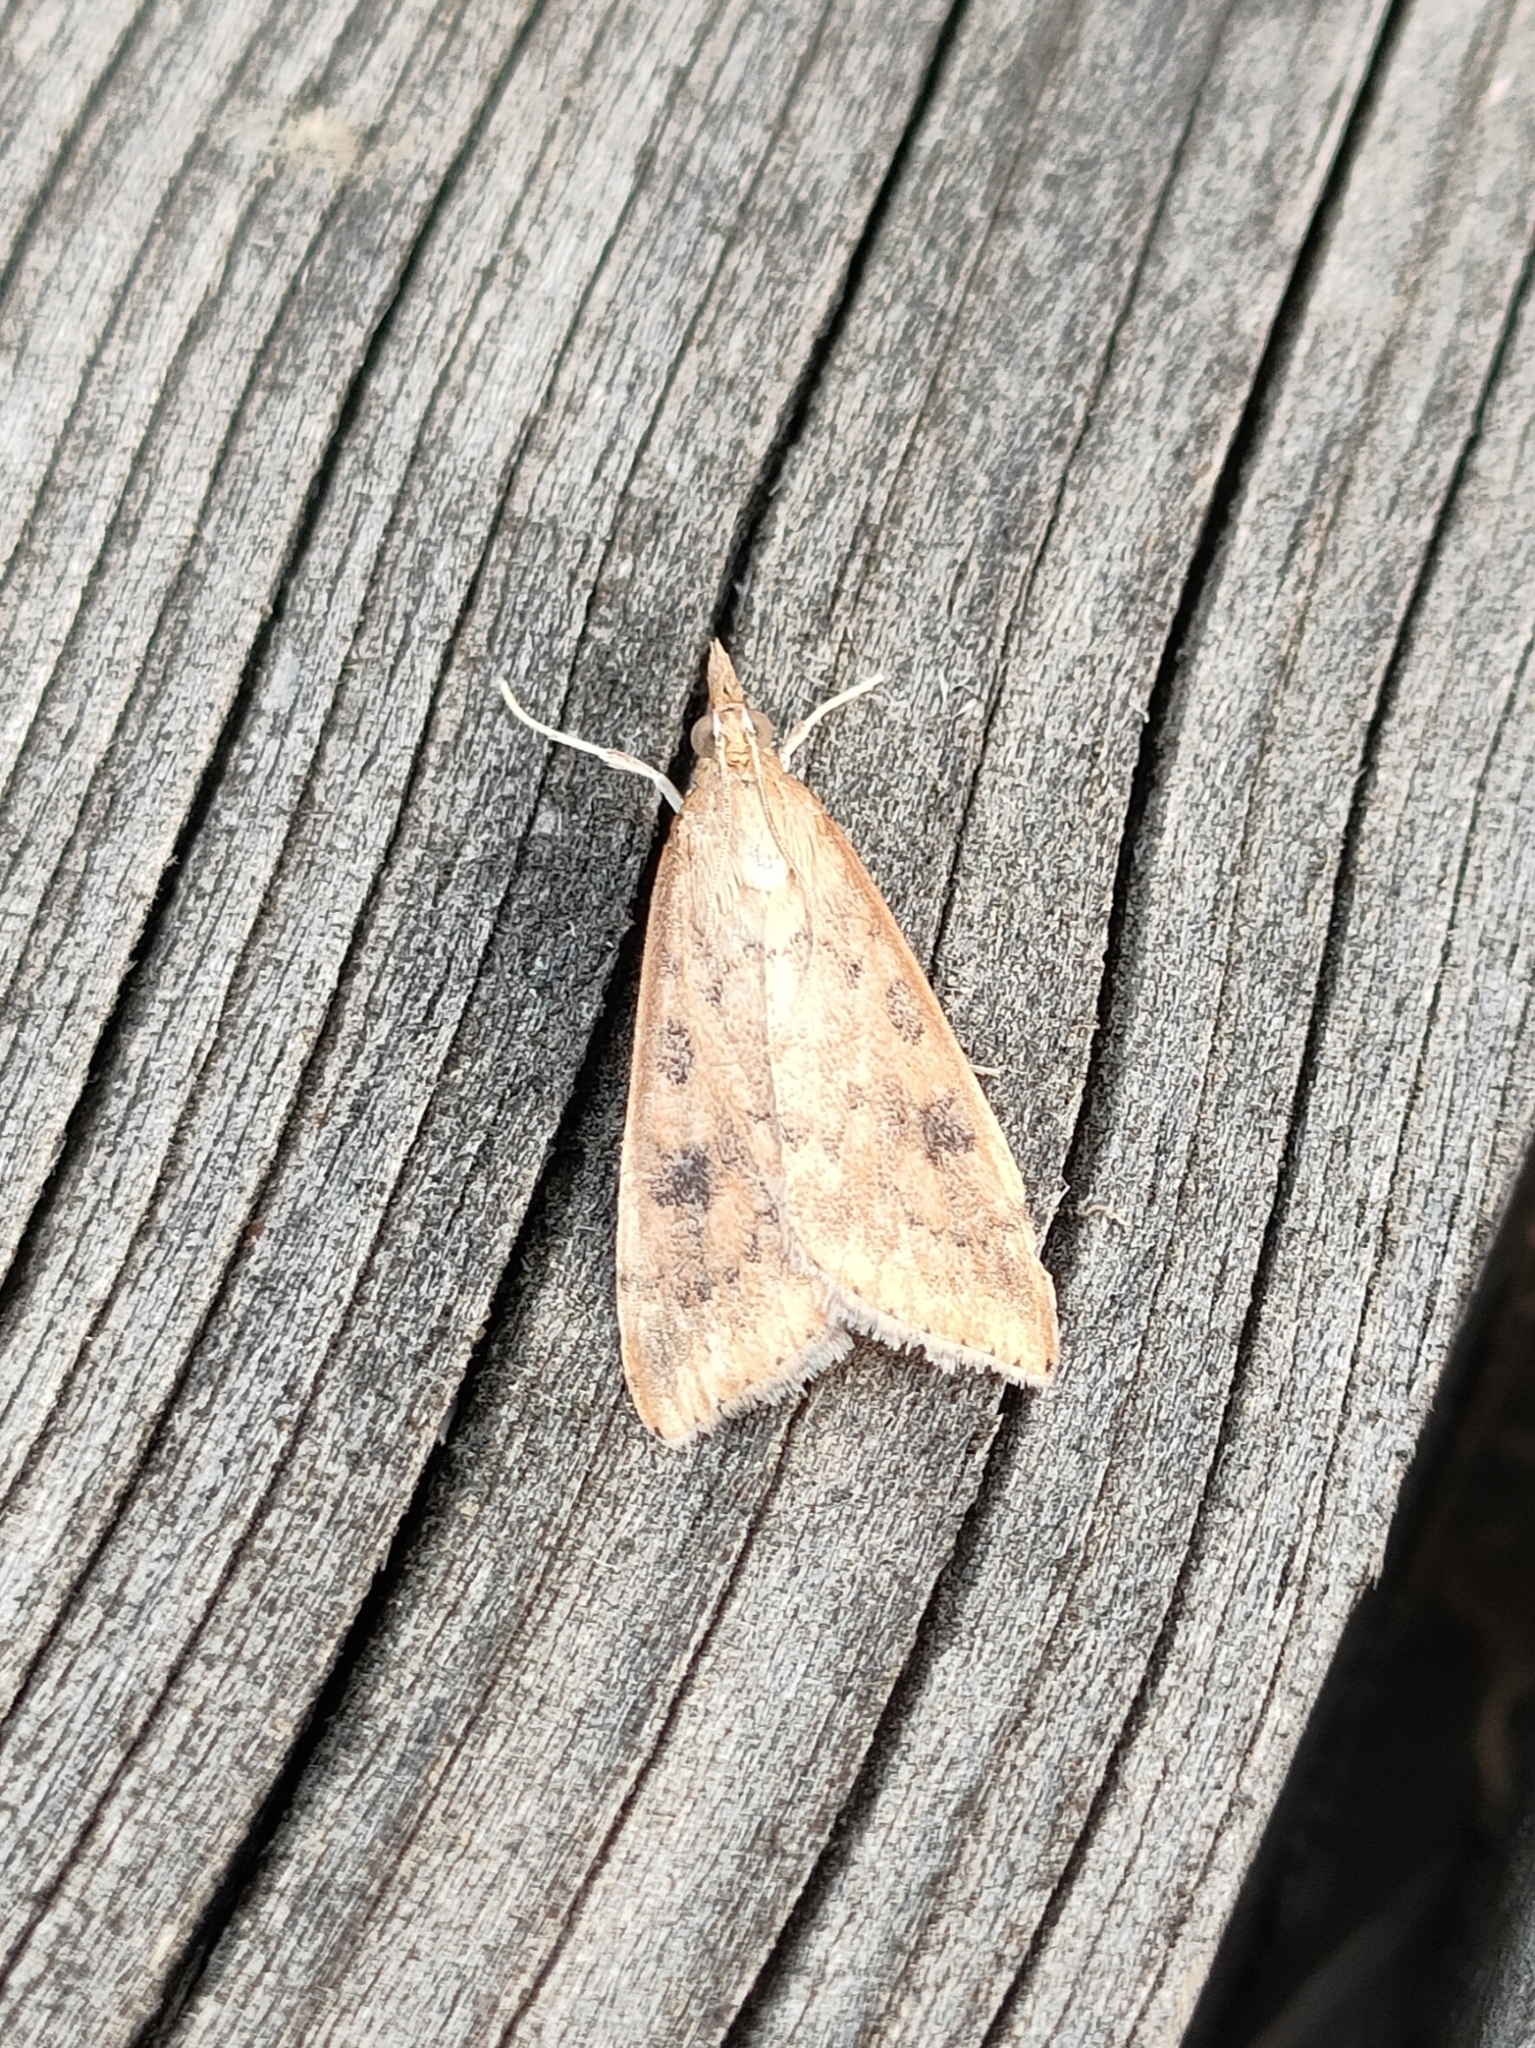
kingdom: Animalia
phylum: Arthropoda
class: Insecta
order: Lepidoptera
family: Crambidae
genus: Udea
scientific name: Udea ferrugalis
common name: Rusty dot
